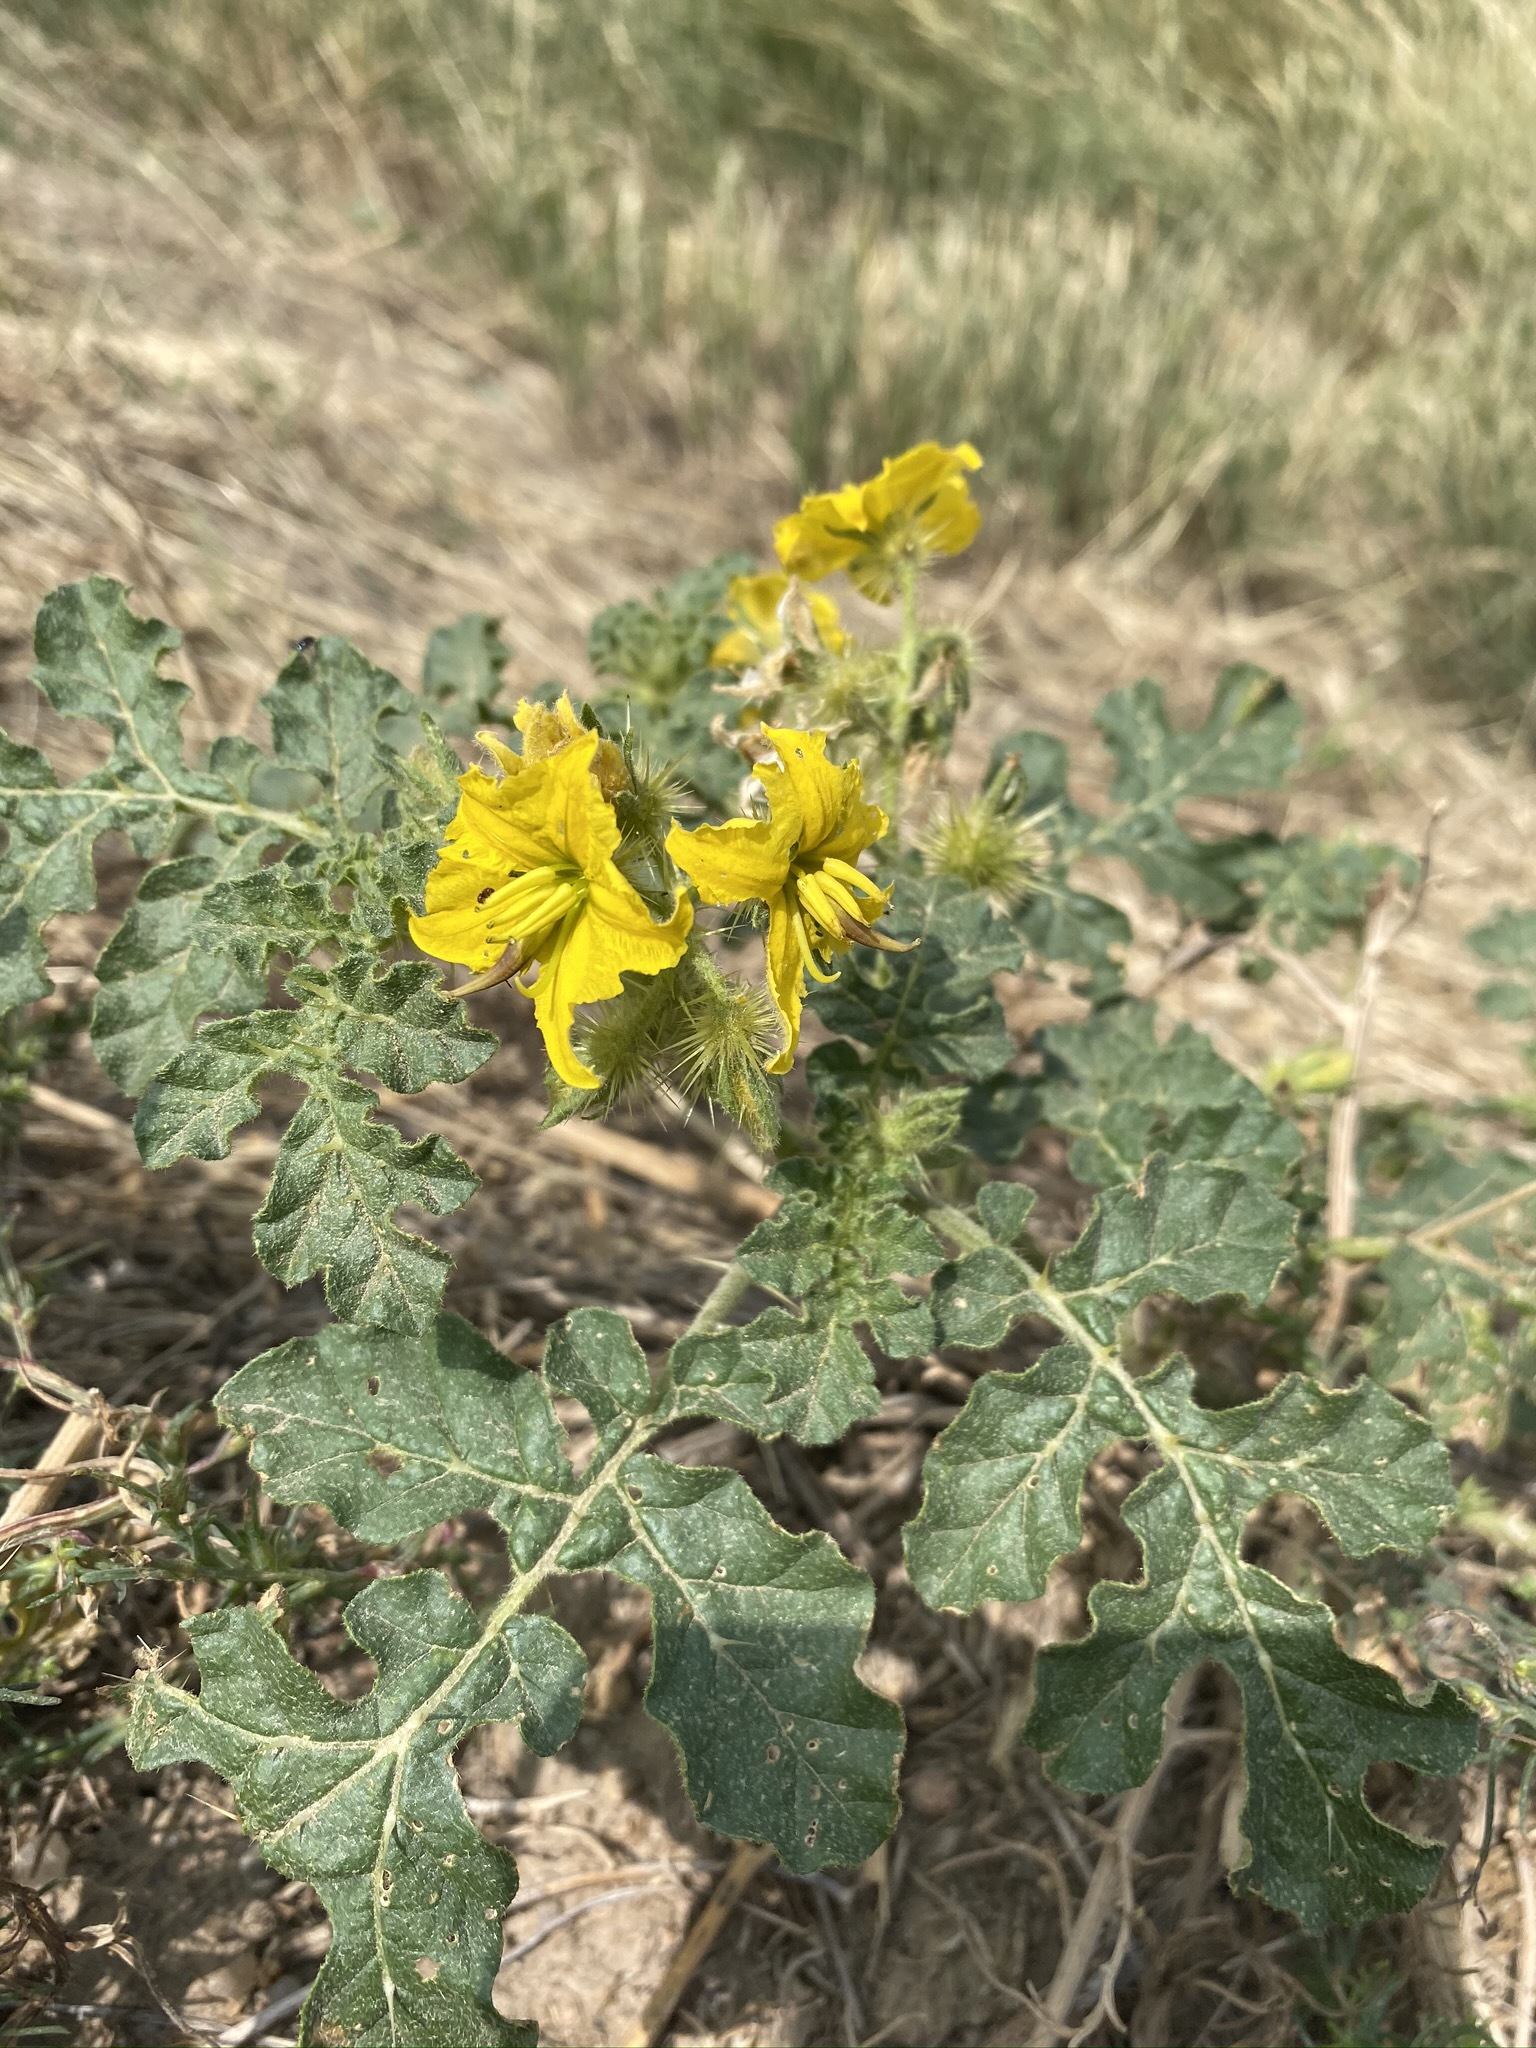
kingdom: Plantae
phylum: Tracheophyta
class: Magnoliopsida
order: Solanales
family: Solanaceae
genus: Solanum
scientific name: Solanum angustifolium
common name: Buffalobur nightshade
